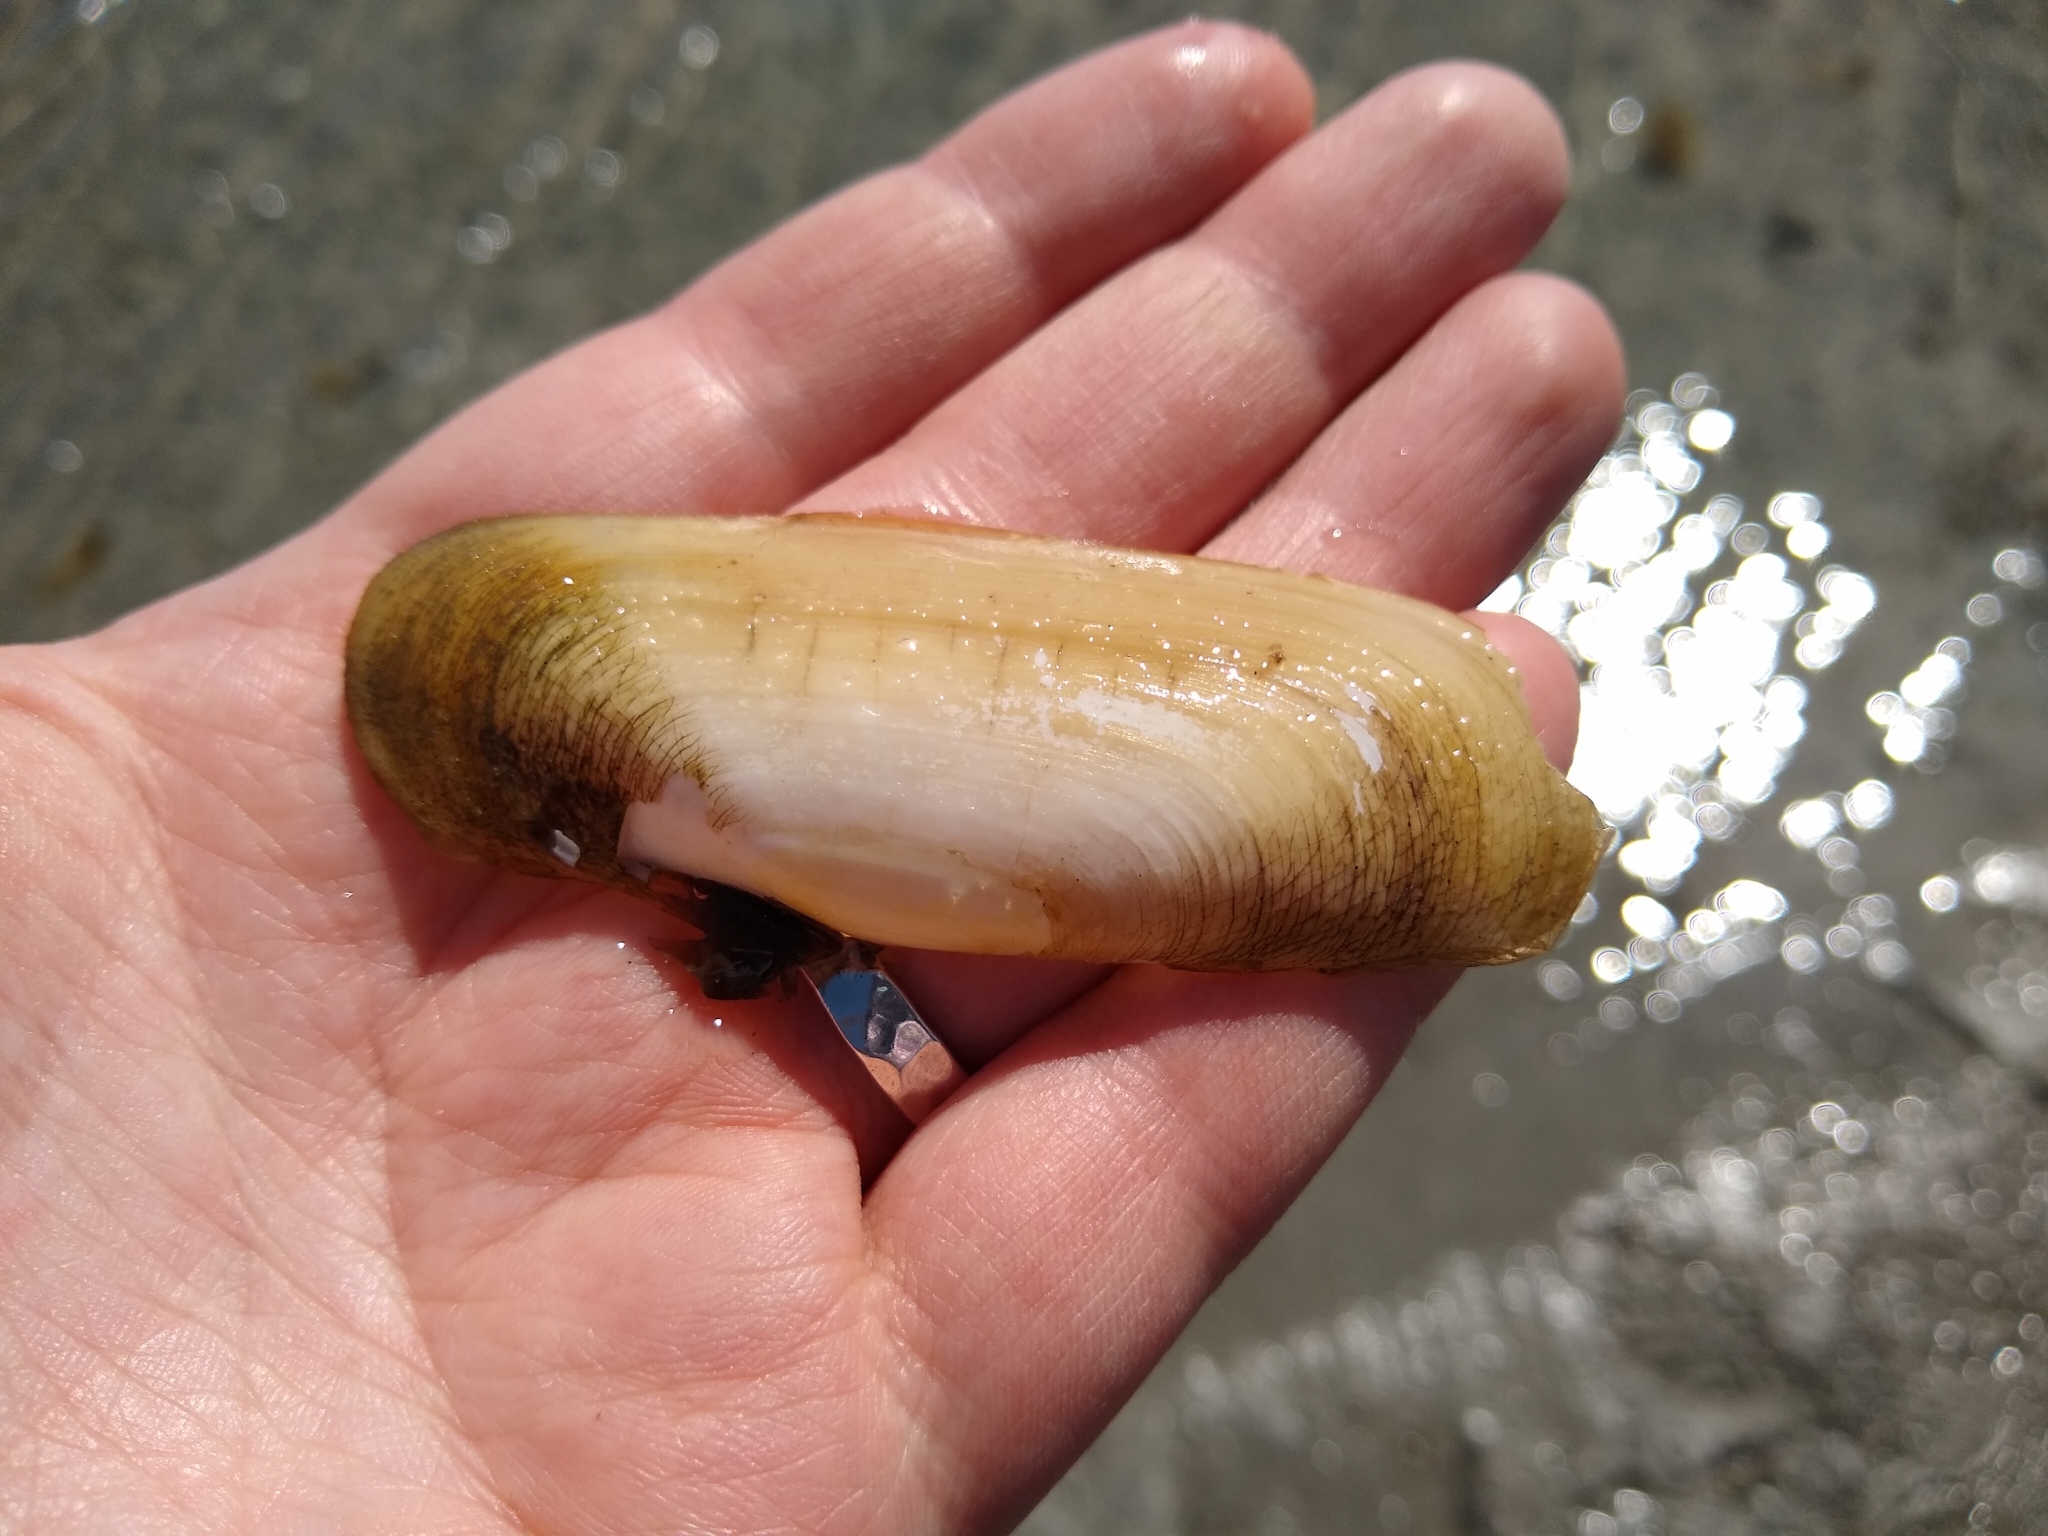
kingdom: Animalia
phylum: Mollusca
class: Bivalvia
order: Cardiida
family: Solecurtidae
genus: Tagelus
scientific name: Tagelus plebeius
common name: Stout tagelus
